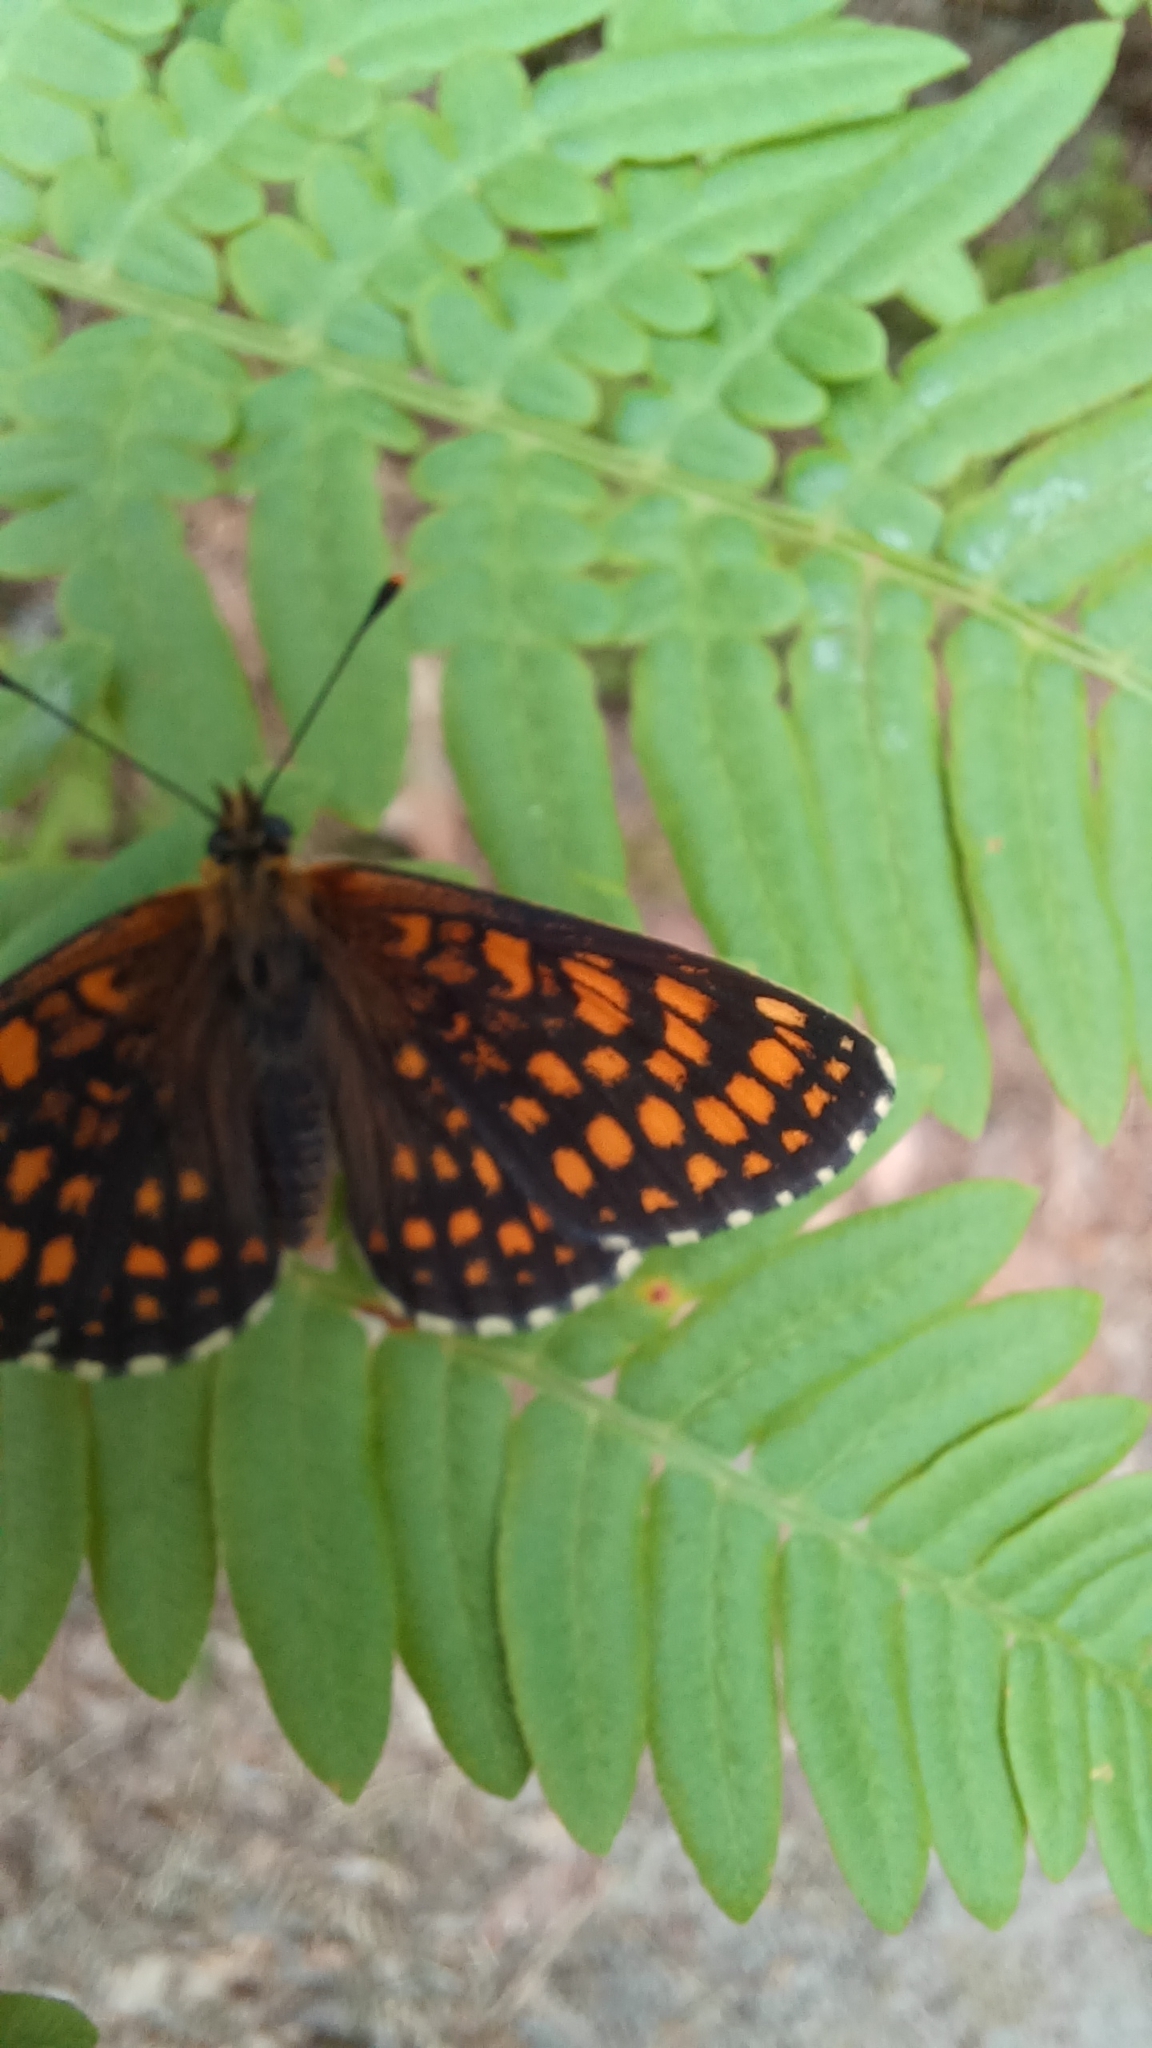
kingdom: Animalia
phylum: Arthropoda
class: Insecta
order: Lepidoptera
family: Nymphalidae
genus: Melitaea
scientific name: Melitaea athalia
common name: Heath fritillary
